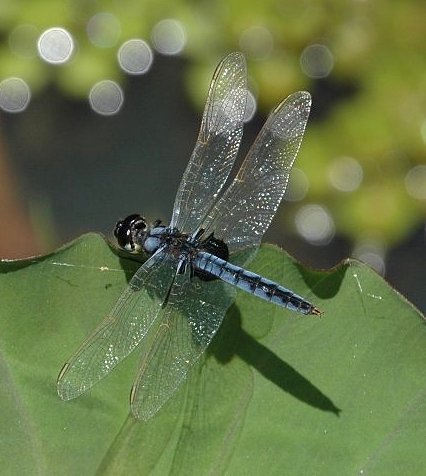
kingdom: Animalia
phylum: Arthropoda
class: Insecta
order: Odonata
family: Libellulidae
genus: Urothemis
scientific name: Urothemis edwardsii
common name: Blue basker
